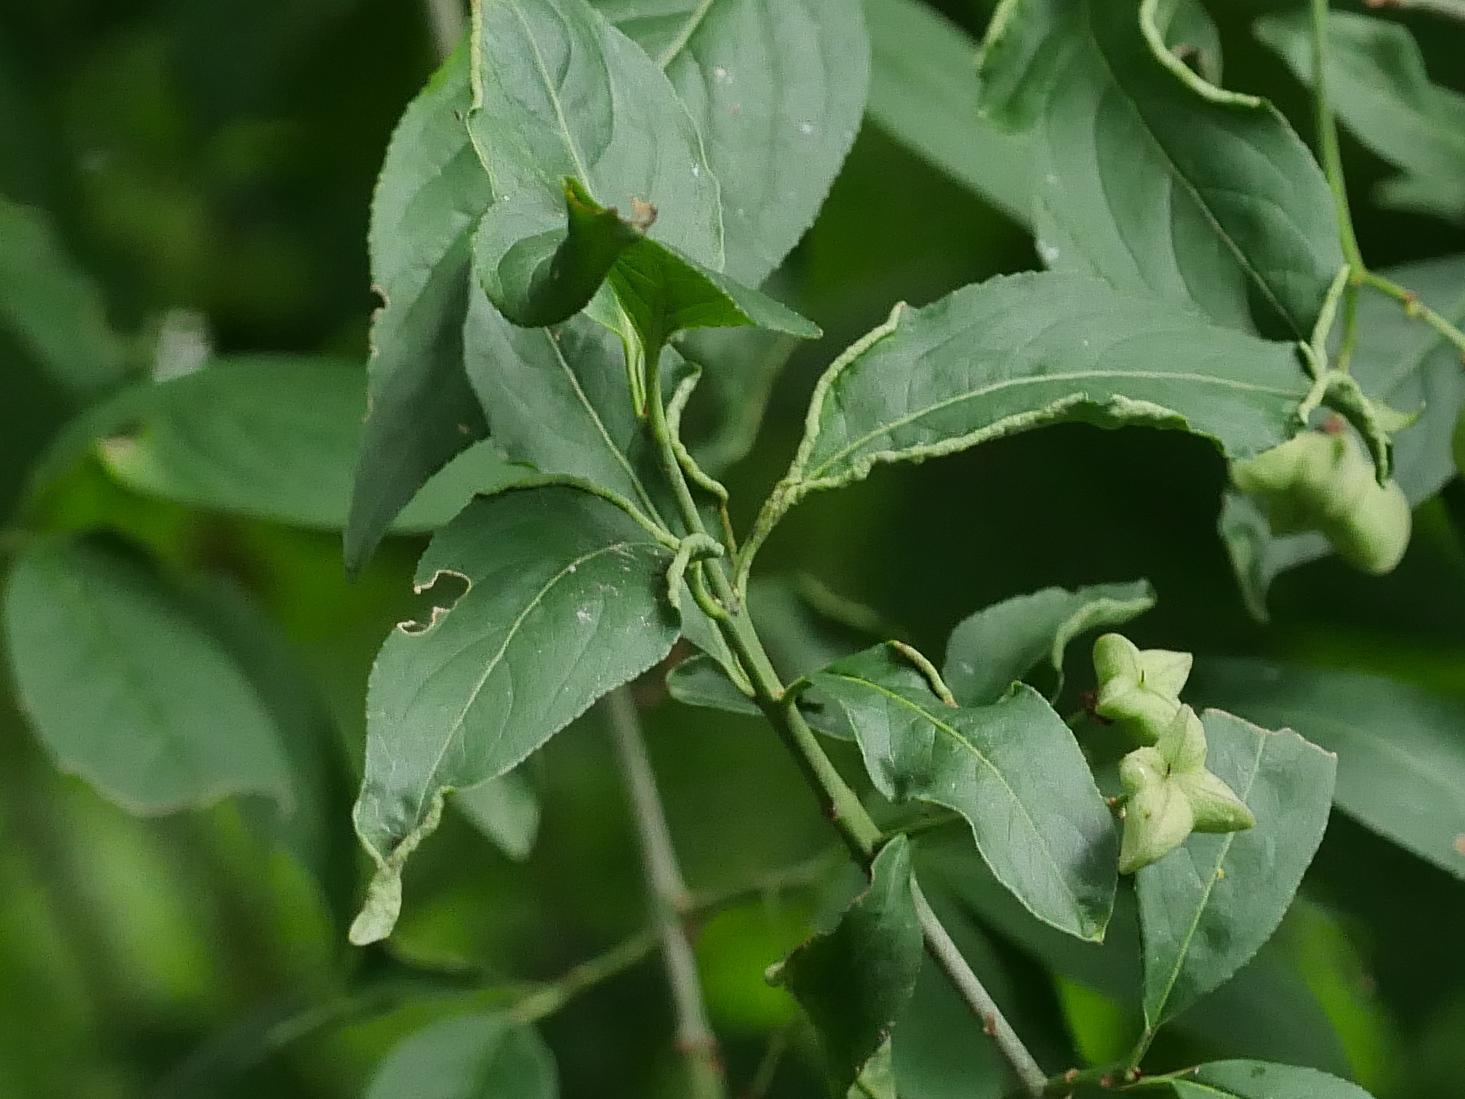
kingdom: Animalia
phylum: Arthropoda
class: Arachnida
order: Trombidiformes
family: Eriophyidae
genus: Stenacis
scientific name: Stenacis evonymi
